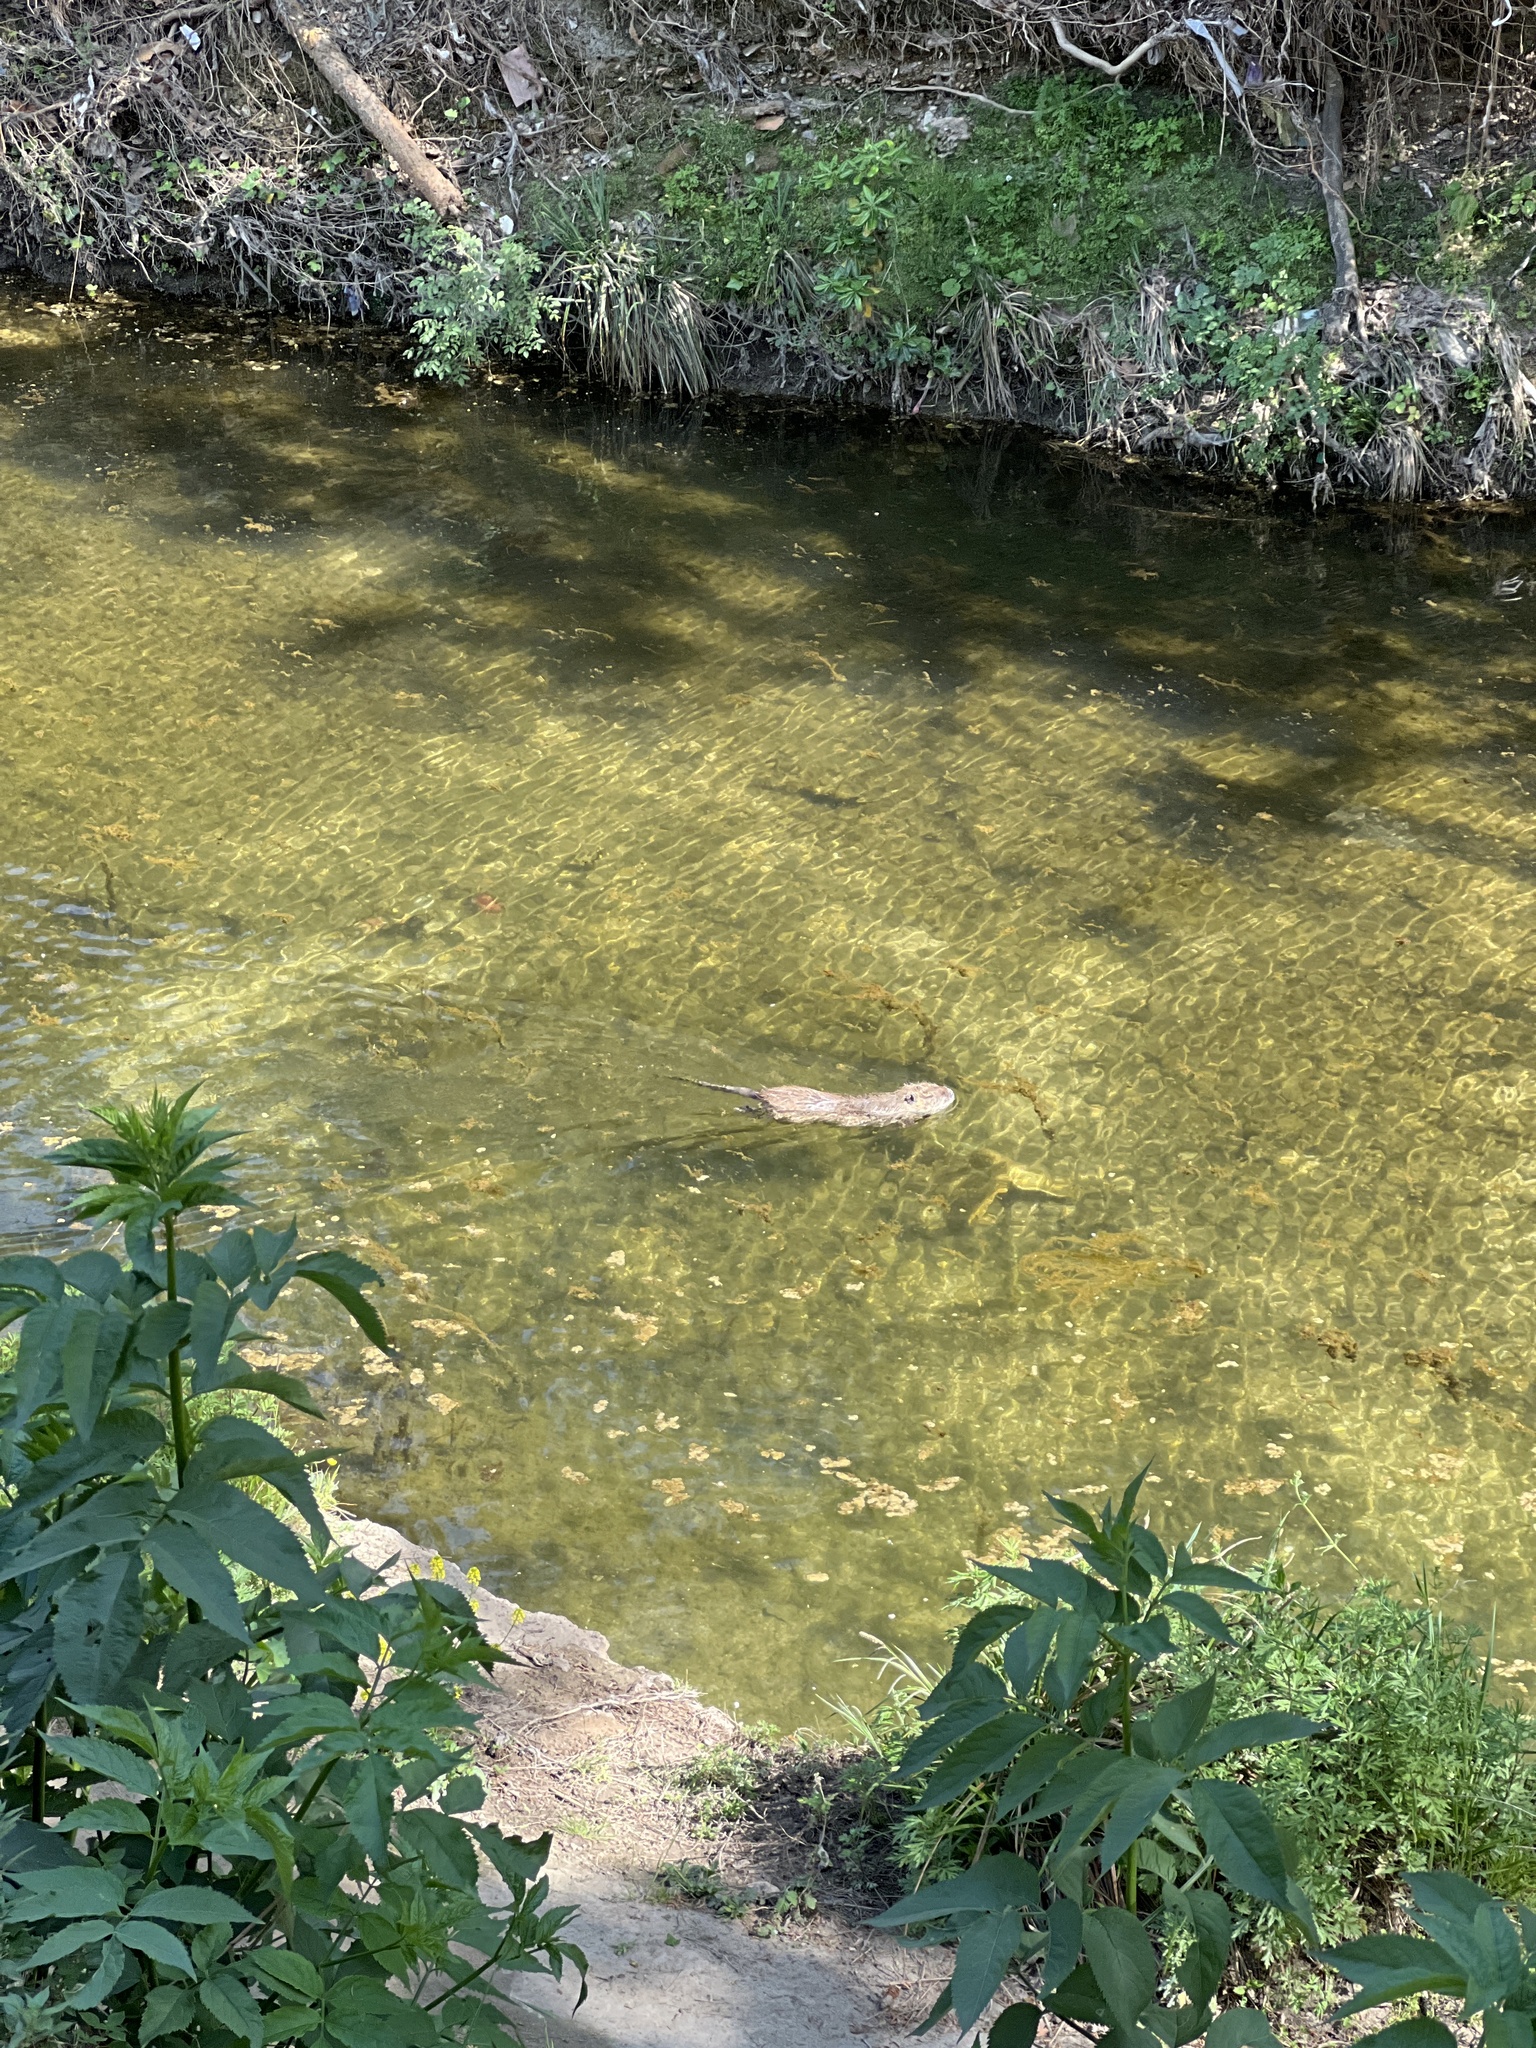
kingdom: Animalia
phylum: Chordata
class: Mammalia
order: Rodentia
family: Myocastoridae
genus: Myocastor
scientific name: Myocastor coypus
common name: Coypu
